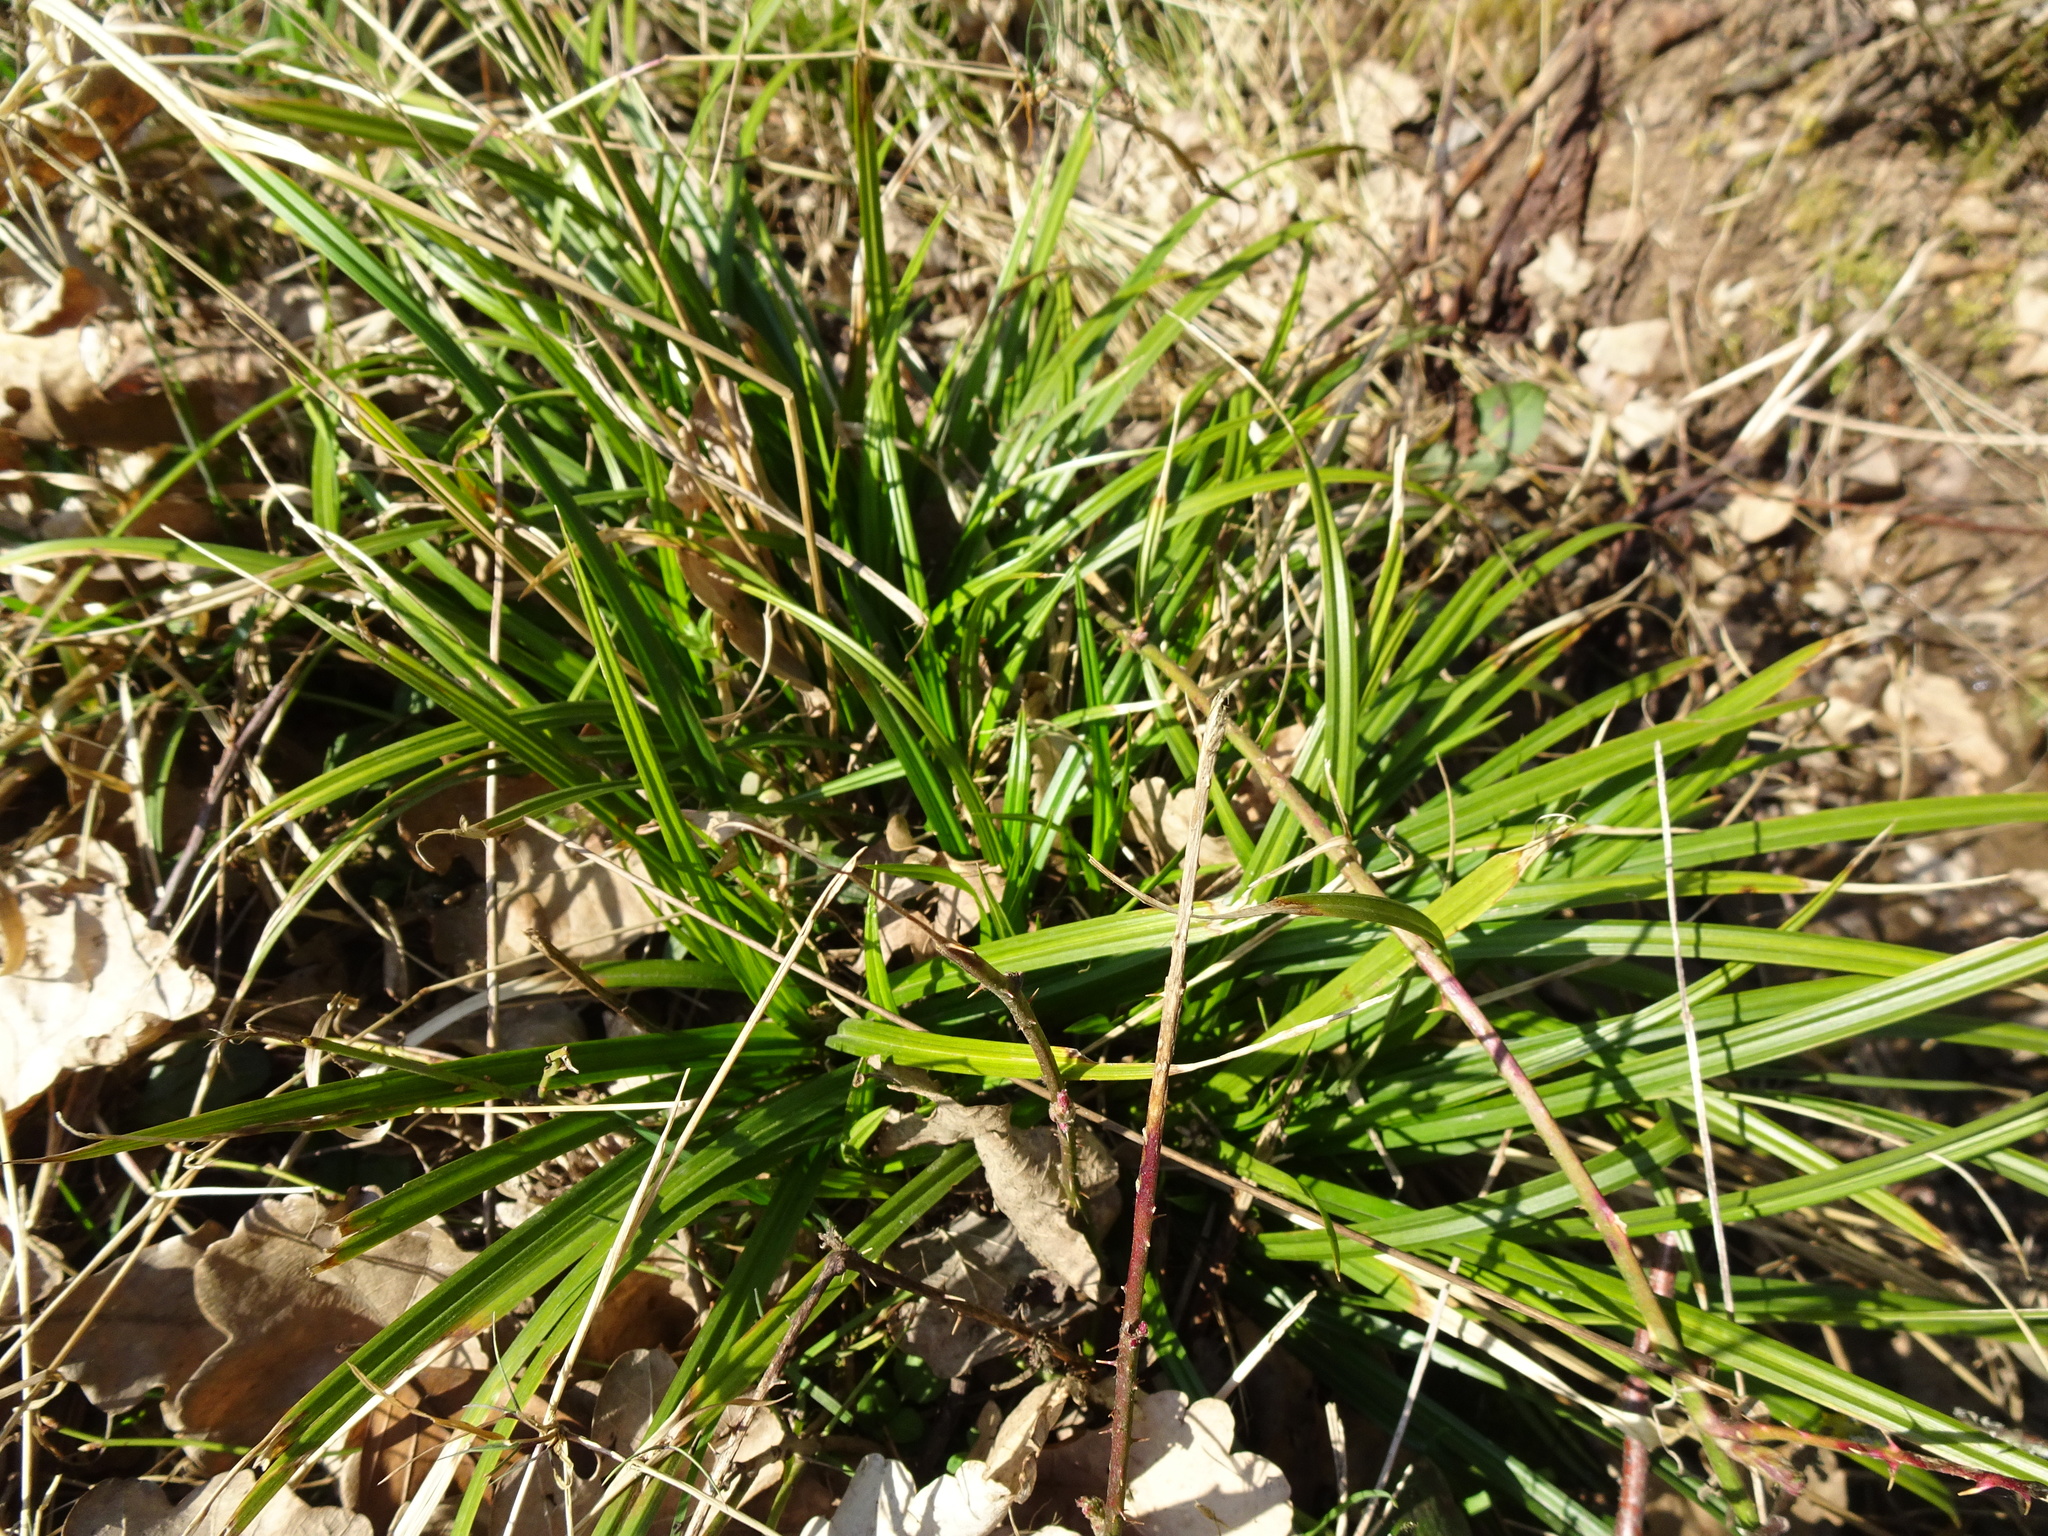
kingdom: Plantae
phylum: Tracheophyta
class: Liliopsida
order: Poales
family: Cyperaceae
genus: Carex
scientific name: Carex sylvatica
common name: Wood-sedge
